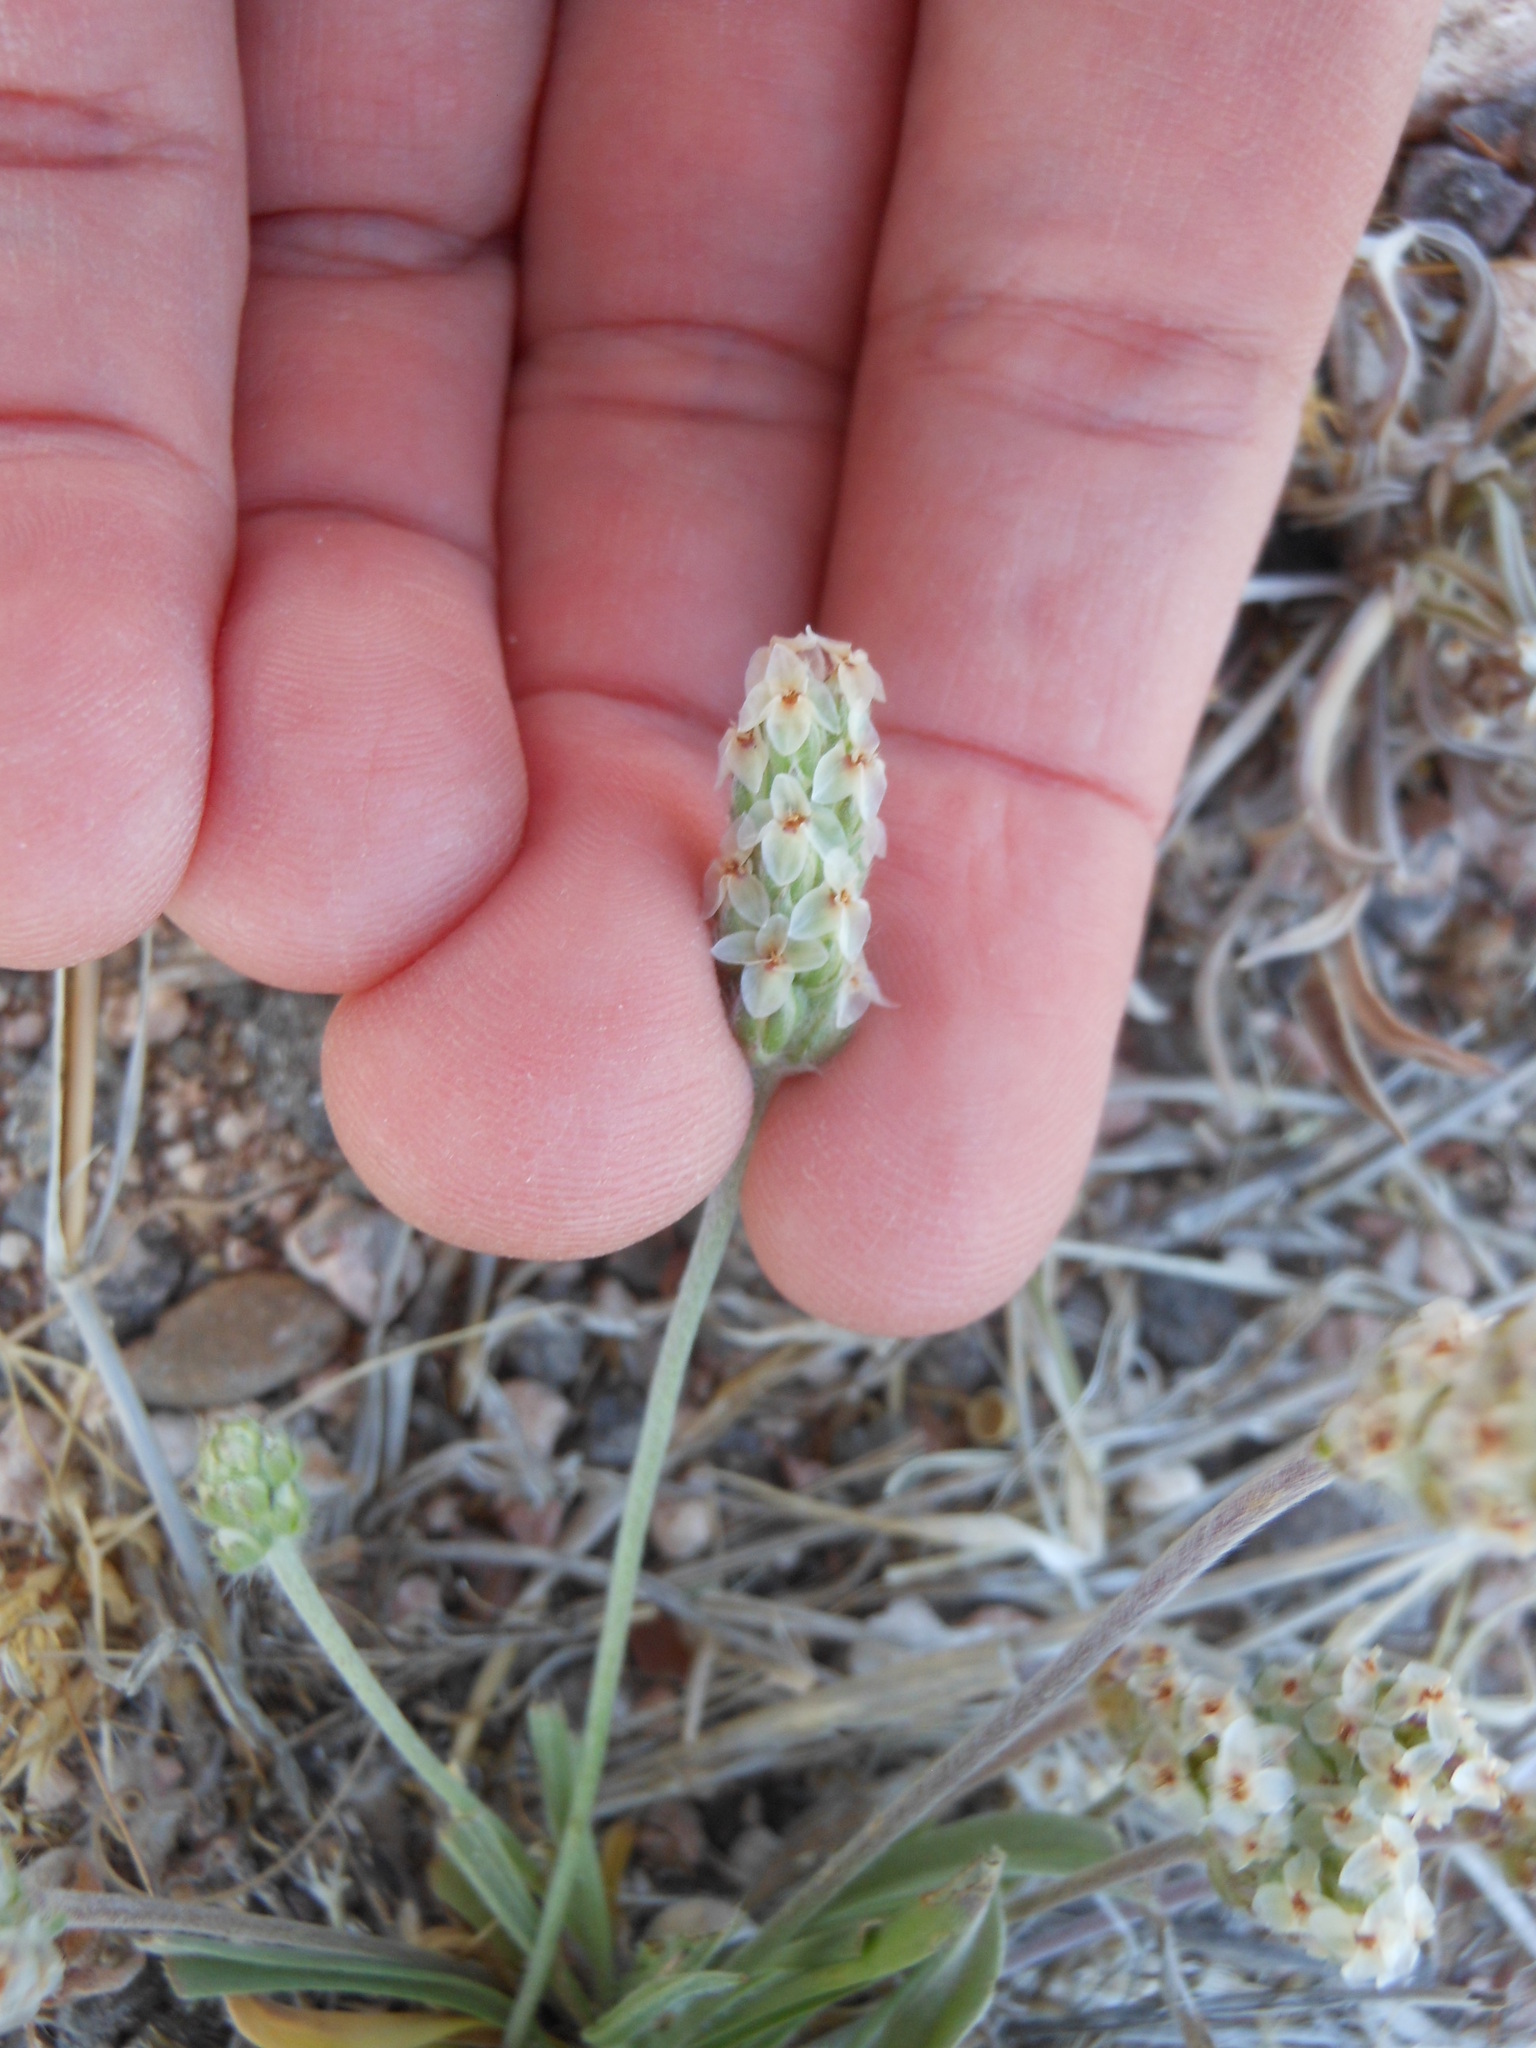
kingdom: Plantae
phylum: Tracheophyta
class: Magnoliopsida
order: Lamiales
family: Plantaginaceae
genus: Plantago
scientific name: Plantago patagonica
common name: Patagonia indian-wheat
